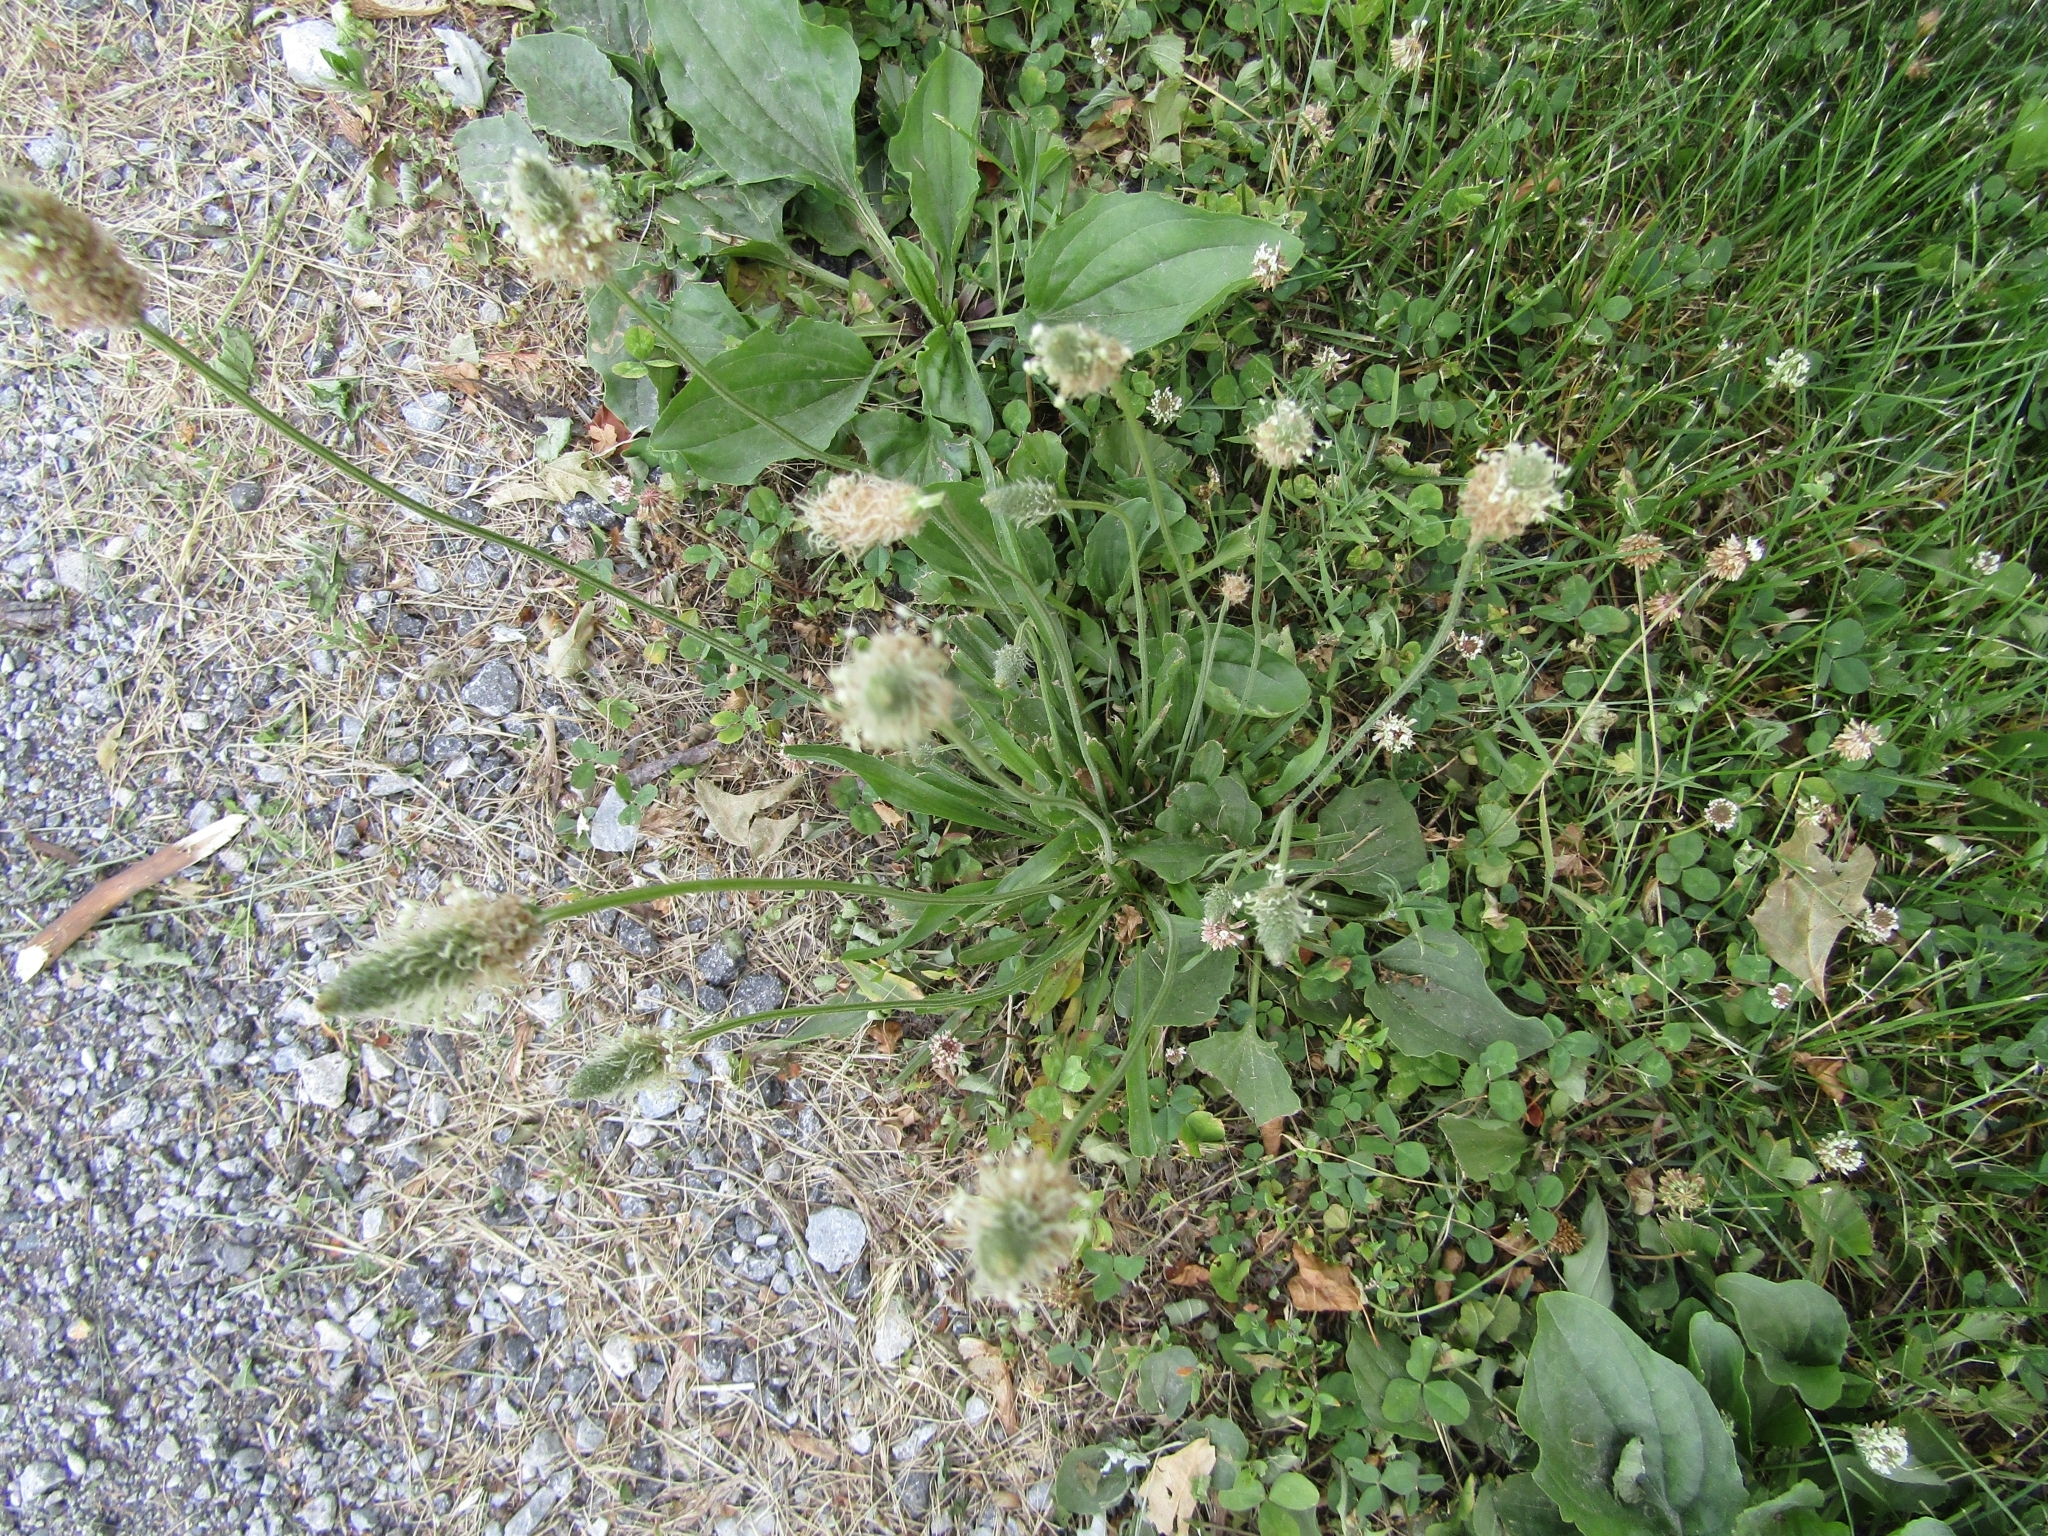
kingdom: Plantae
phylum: Tracheophyta
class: Magnoliopsida
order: Lamiales
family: Plantaginaceae
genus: Plantago
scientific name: Plantago lanceolata
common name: Ribwort plantain
